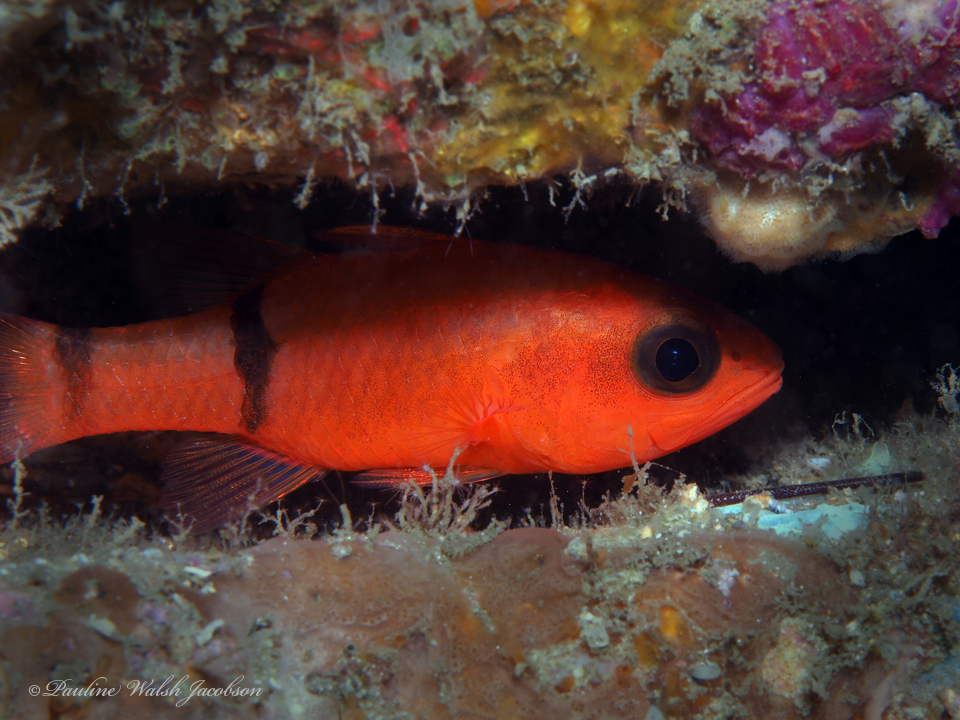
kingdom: Animalia
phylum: Chordata
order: Perciformes
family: Apogonidae
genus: Apogon
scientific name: Apogon binotatus
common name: Barred cardinalfish
